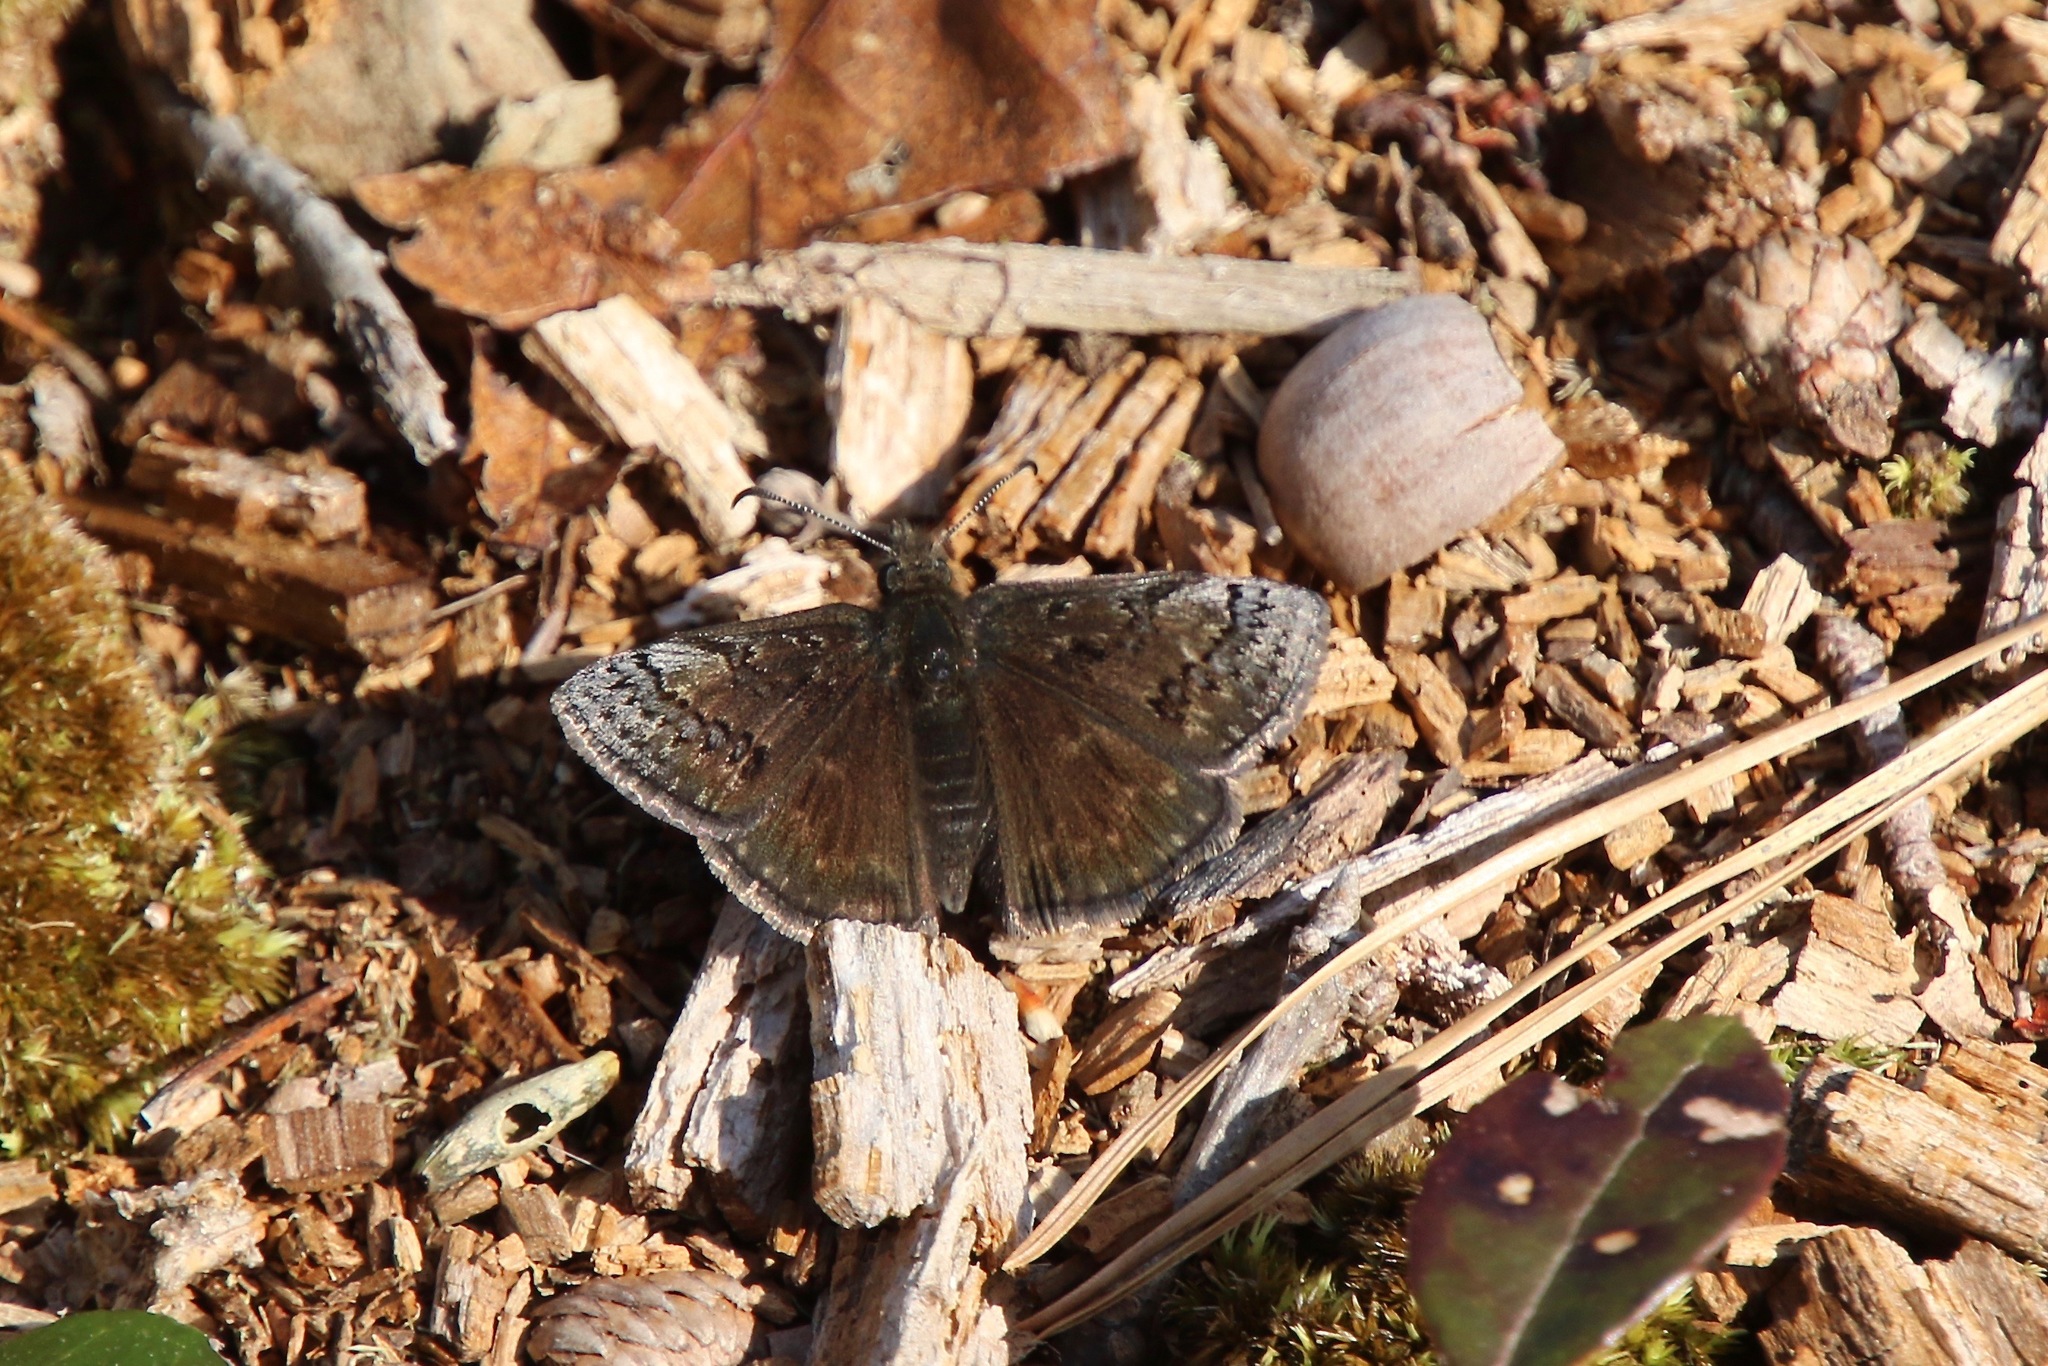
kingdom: Animalia
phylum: Arthropoda
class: Insecta
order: Lepidoptera
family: Hesperiidae
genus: Erynnis
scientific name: Erynnis brizo
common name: Sleepy duskywing
